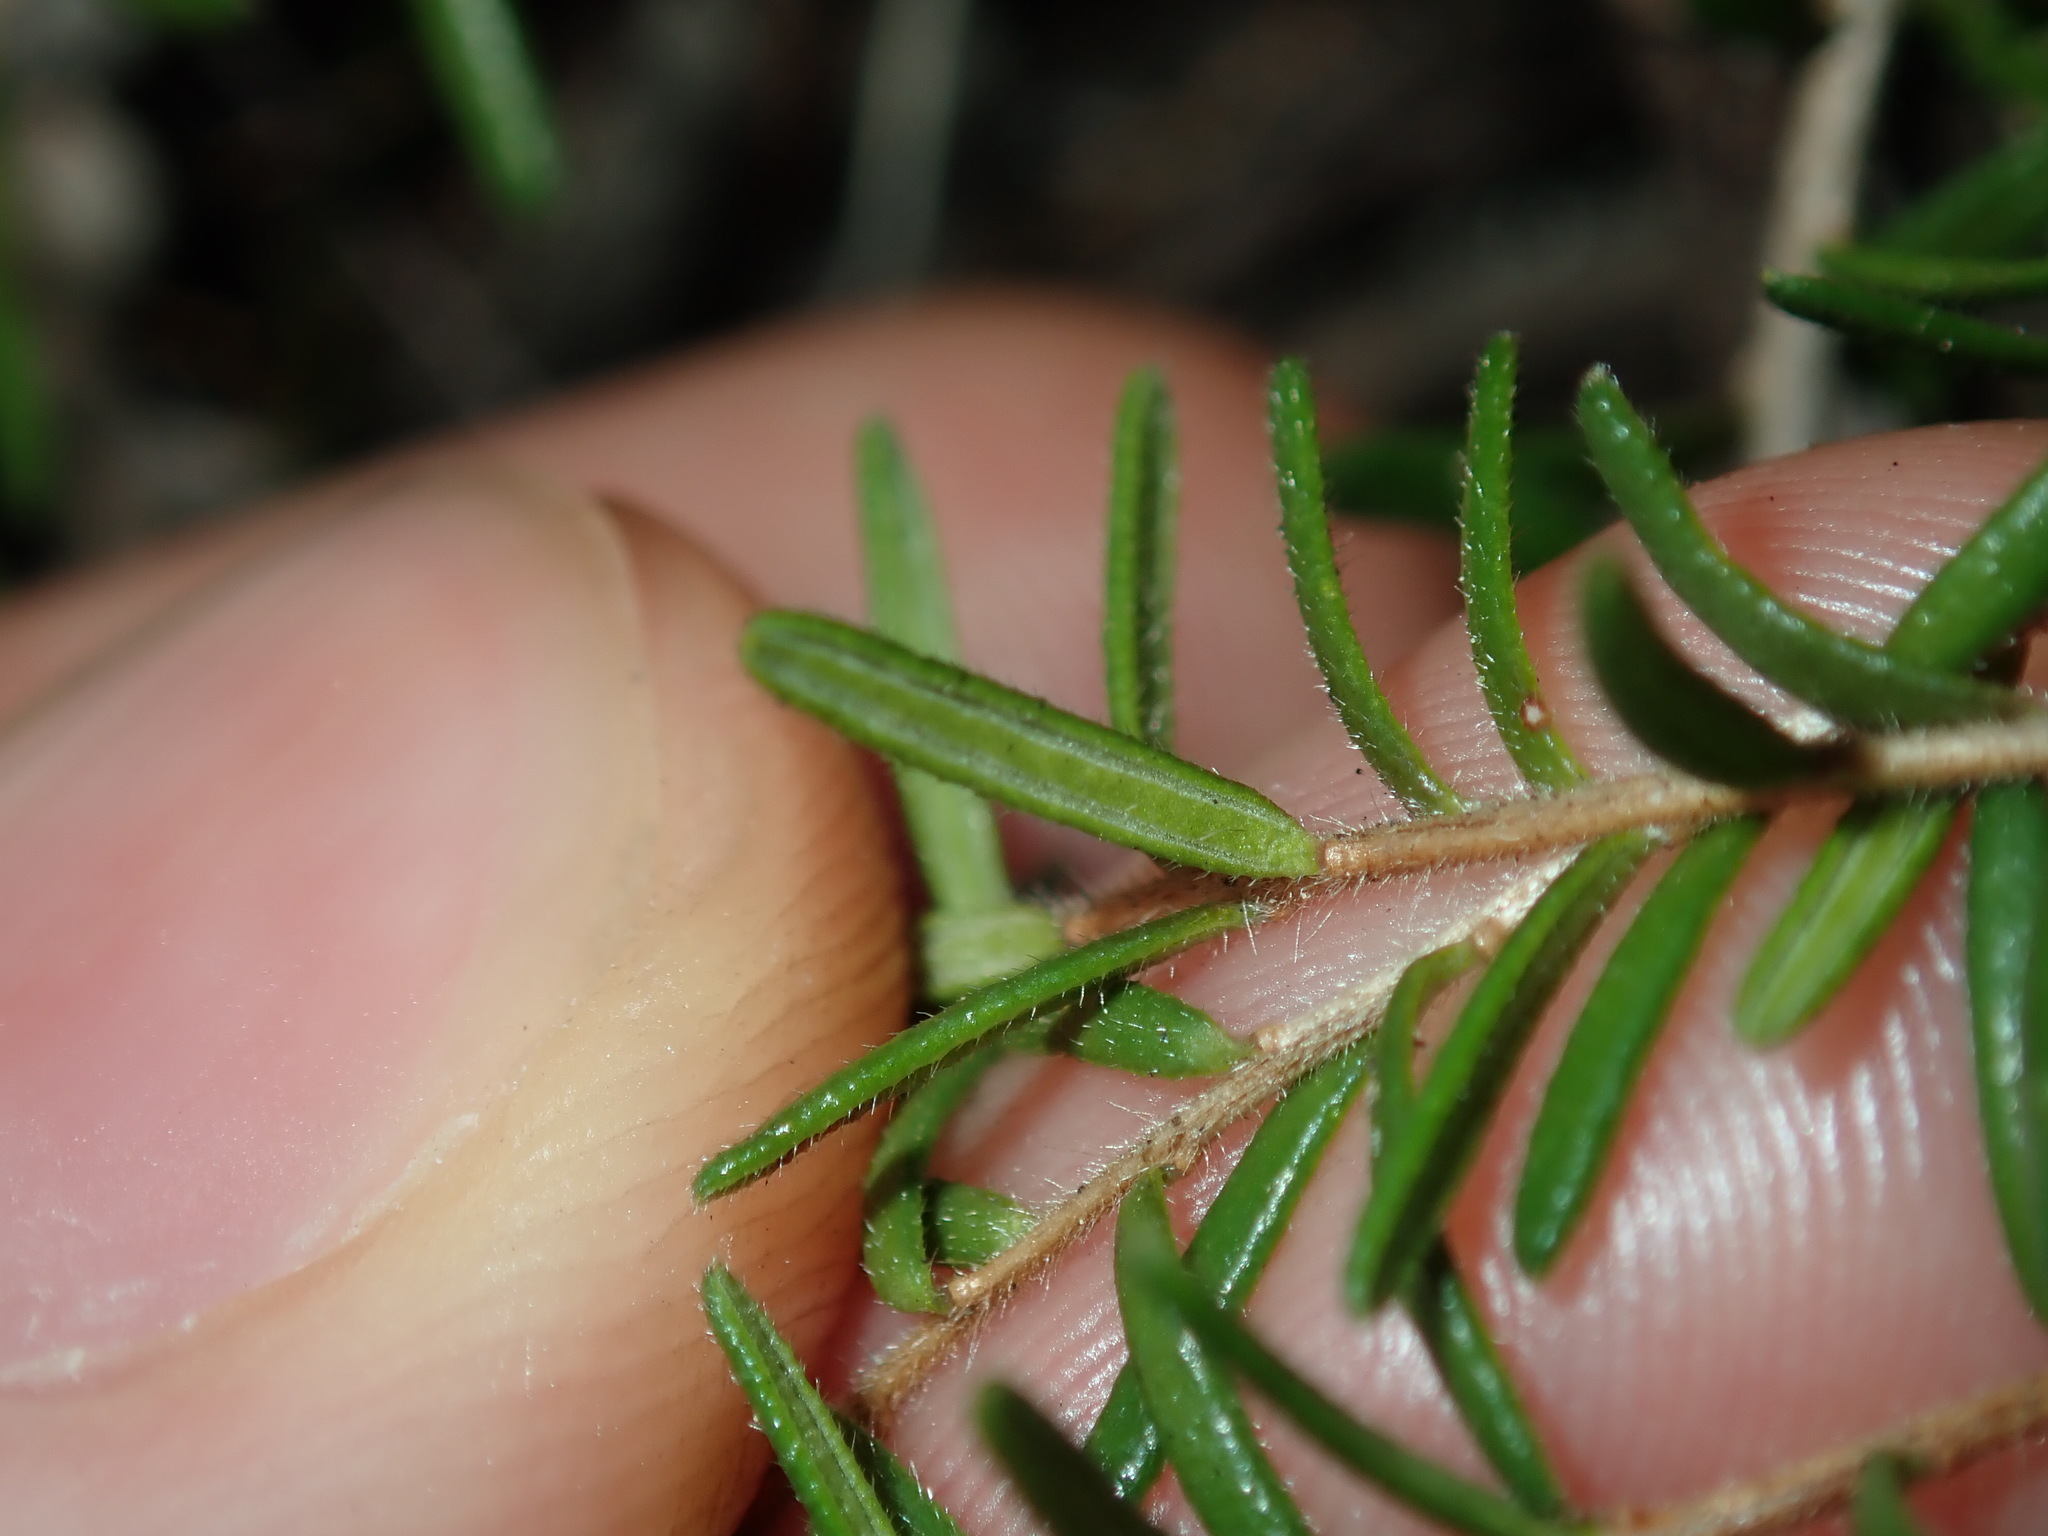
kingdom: Plantae
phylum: Tracheophyta
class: Magnoliopsida
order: Dilleniales
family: Dilleniaceae
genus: Hibbertia
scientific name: Hibbertia pedunculata
